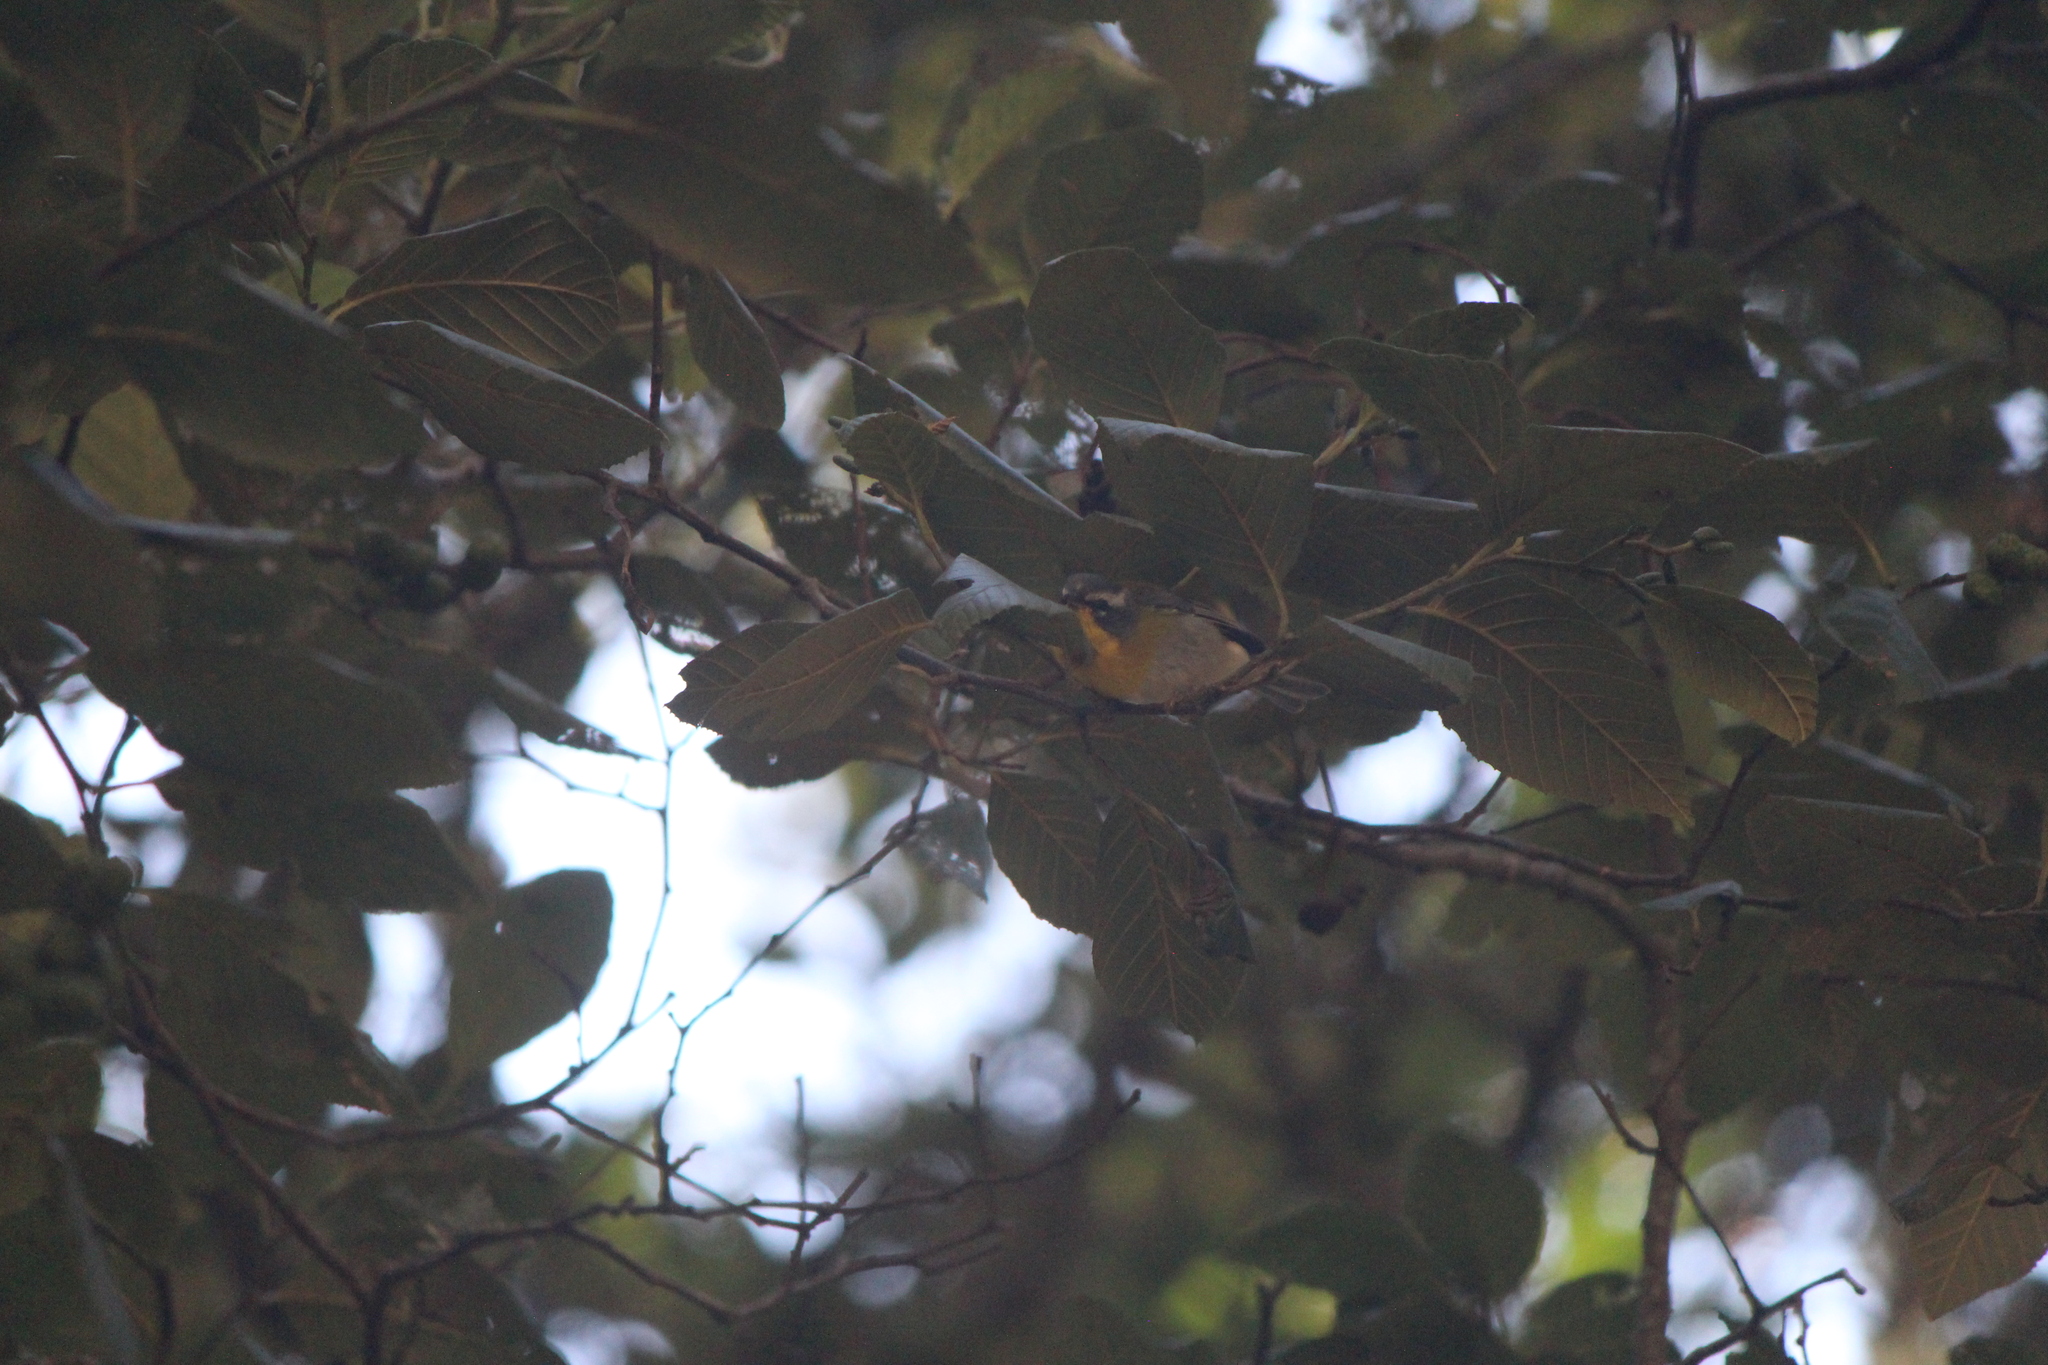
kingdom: Animalia
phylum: Chordata
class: Aves
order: Passeriformes
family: Parulidae
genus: Oreothlypis
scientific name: Oreothlypis superciliosa
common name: Crescent-chested warbler
